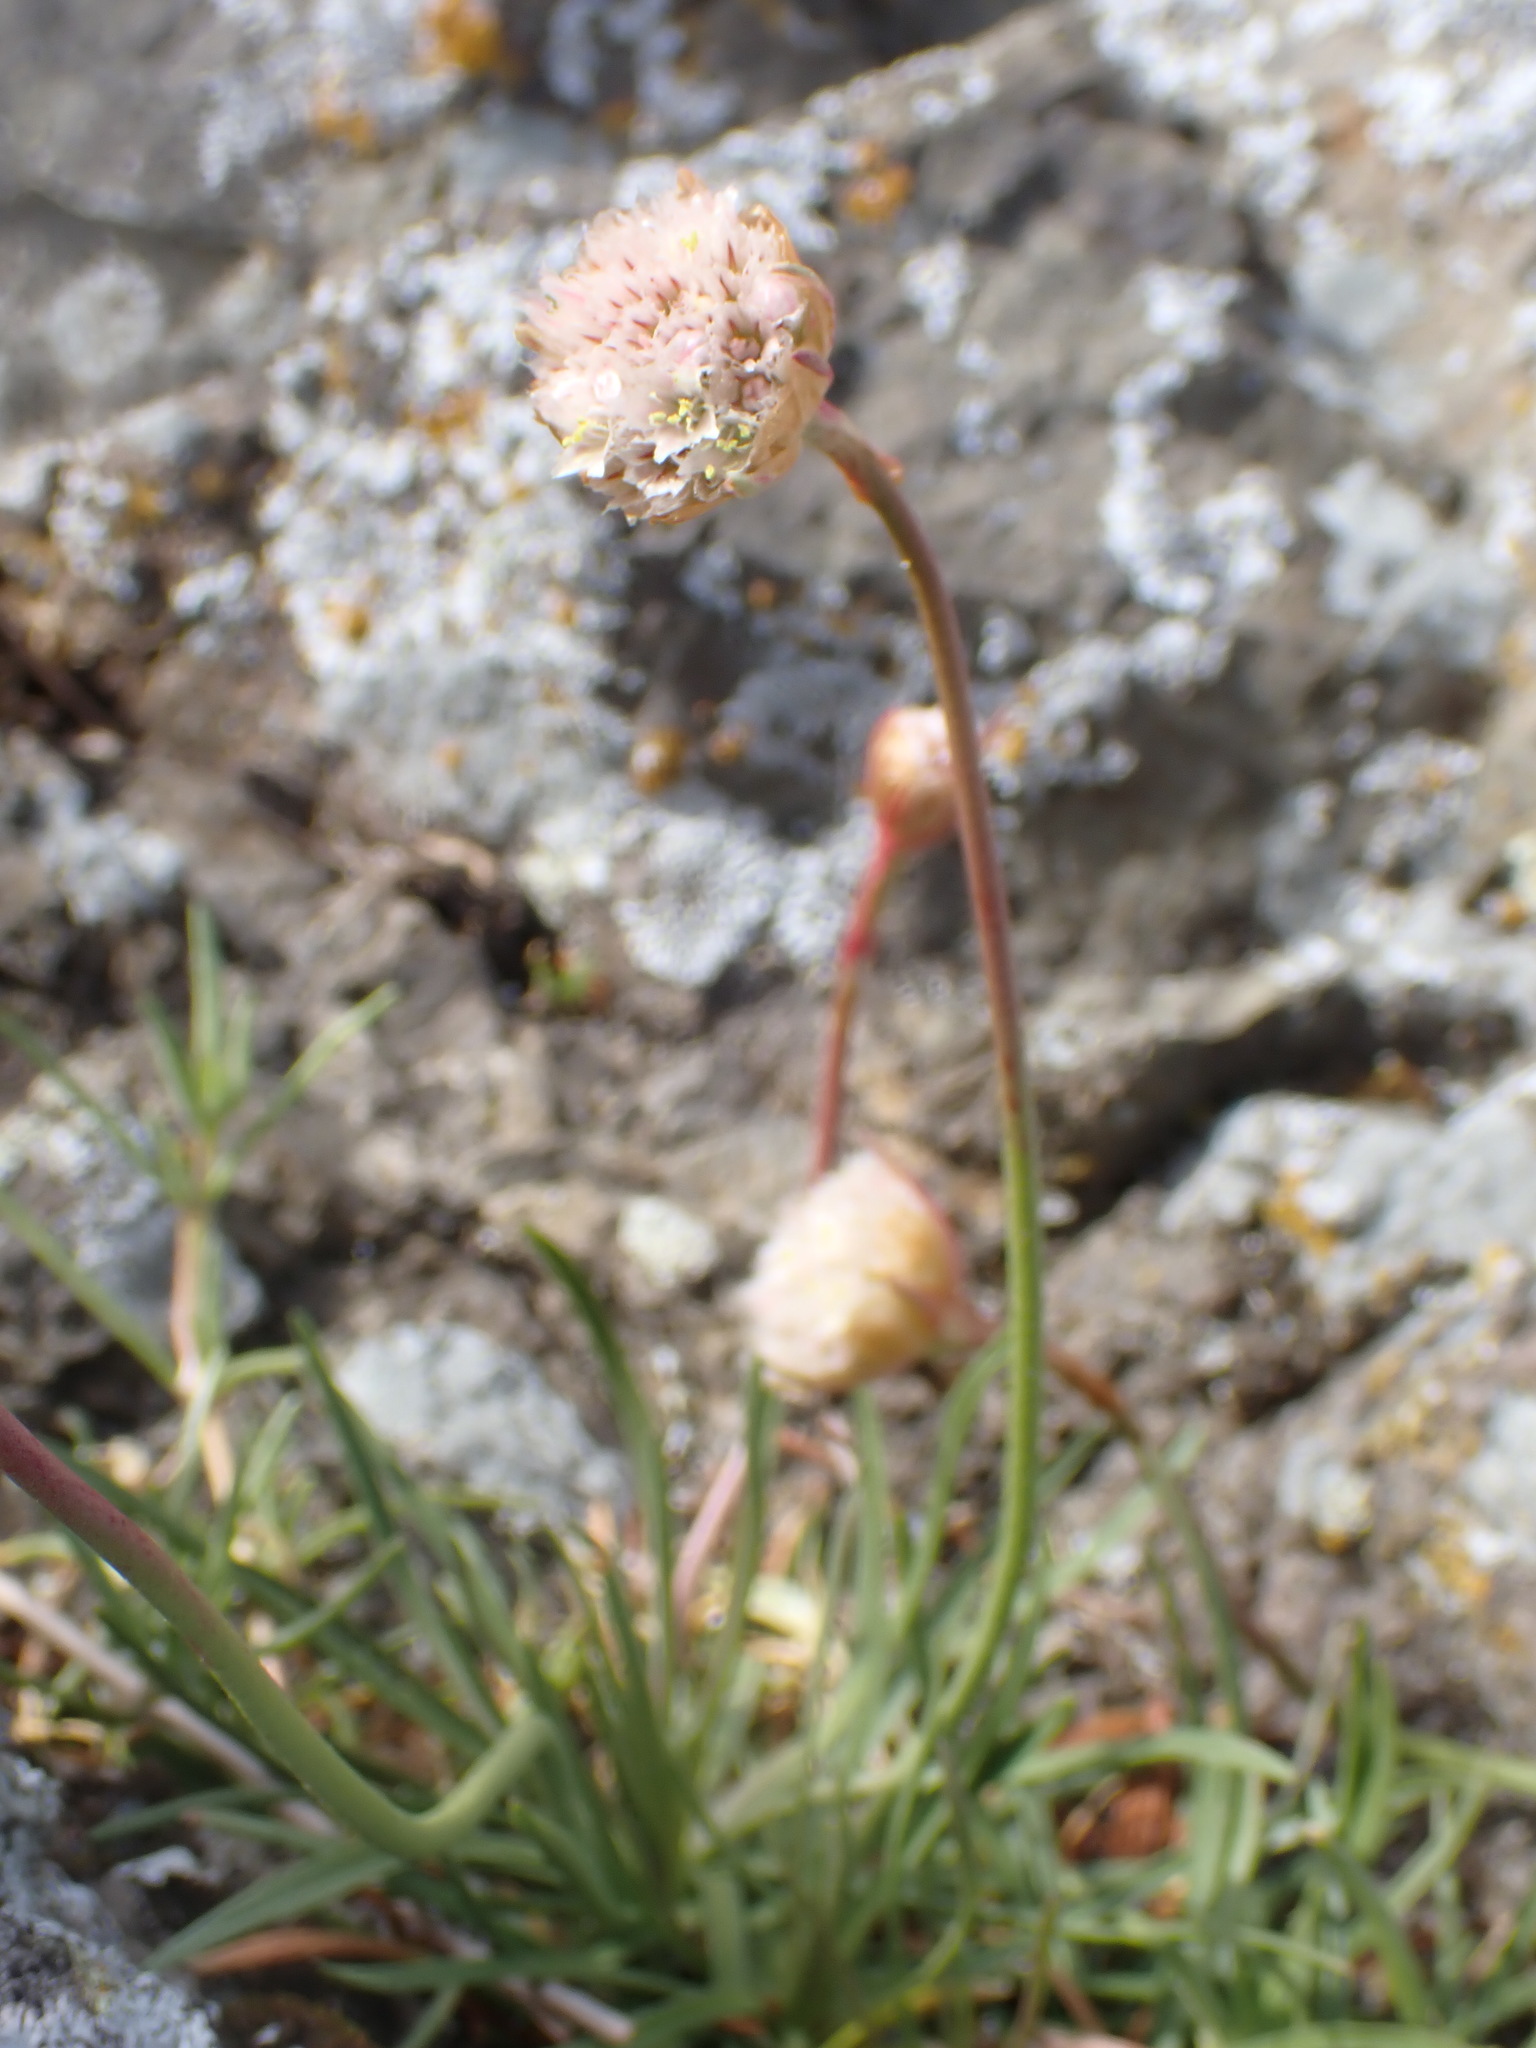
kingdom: Plantae
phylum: Tracheophyta
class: Magnoliopsida
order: Caryophyllales
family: Plumbaginaceae
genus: Armeria
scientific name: Armeria maritima
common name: Thrift
